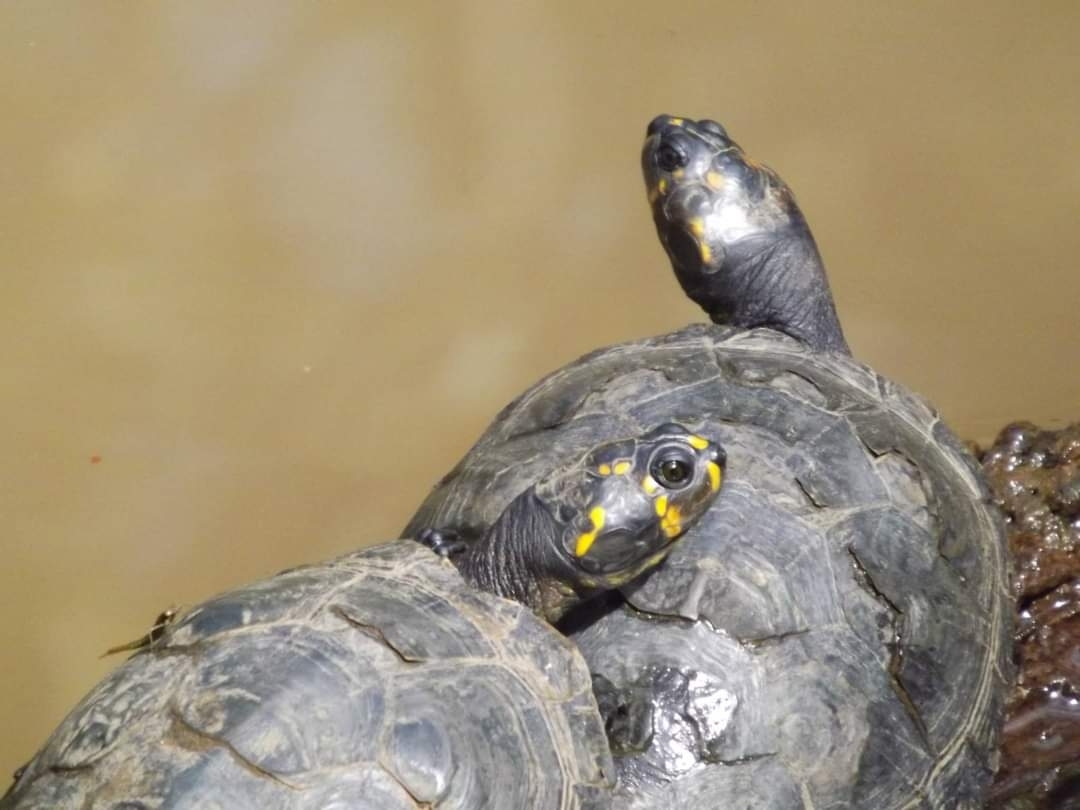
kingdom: Animalia
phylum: Chordata
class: Testudines
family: Podocnemididae
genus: Podocnemis
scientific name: Podocnemis unifilis
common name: Yellow-spotted amazon river turtle
